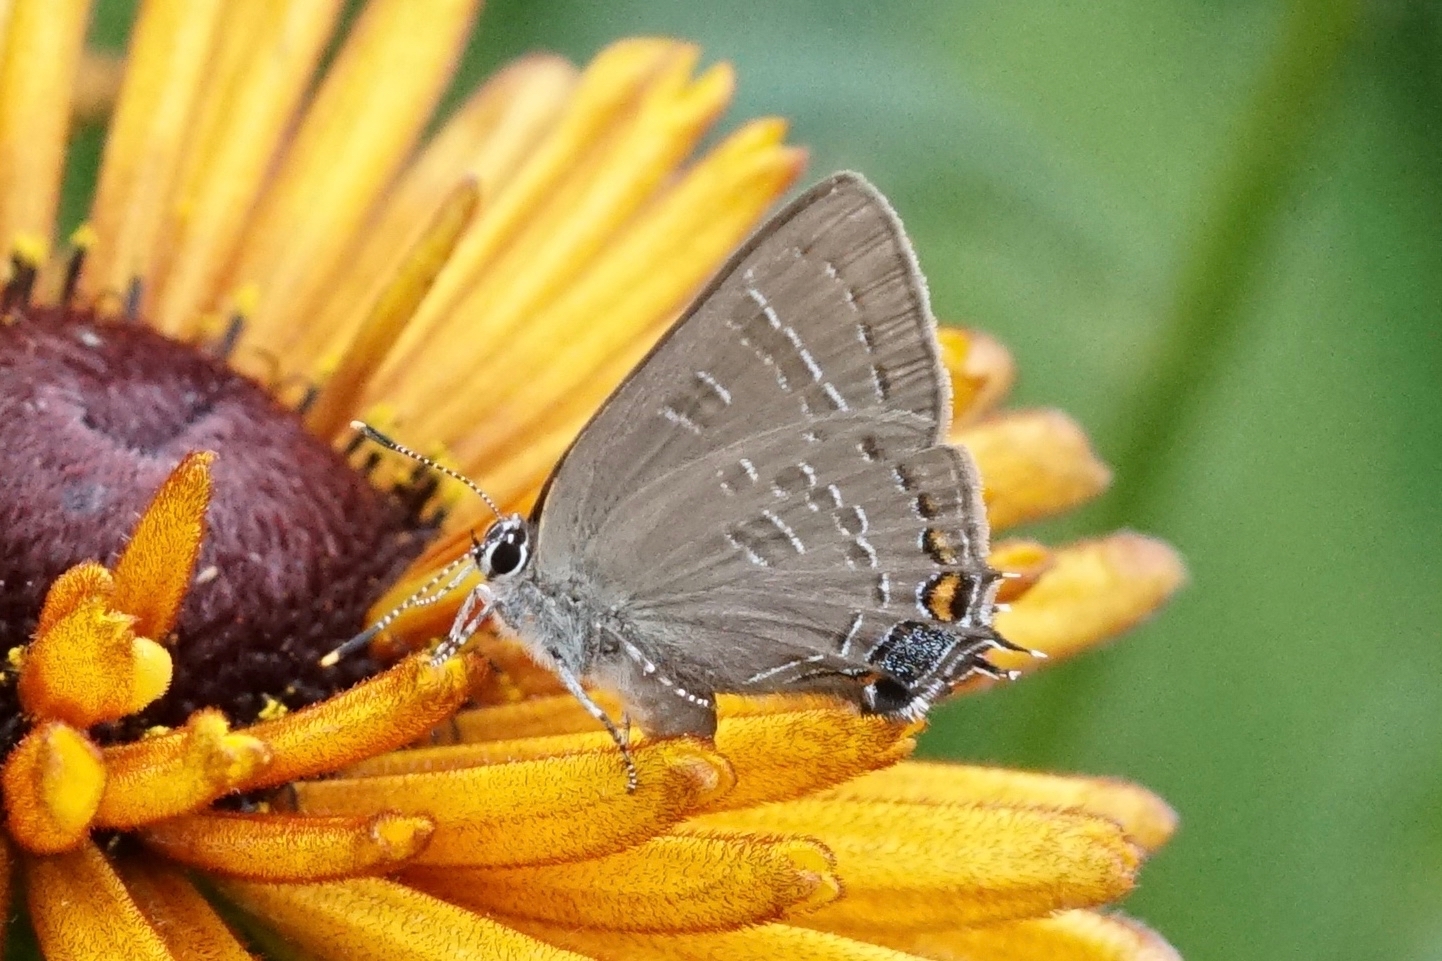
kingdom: Animalia
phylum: Arthropoda
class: Insecta
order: Lepidoptera
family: Lycaenidae
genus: Satyrium
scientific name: Satyrium calanus
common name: Banded hairstreak
